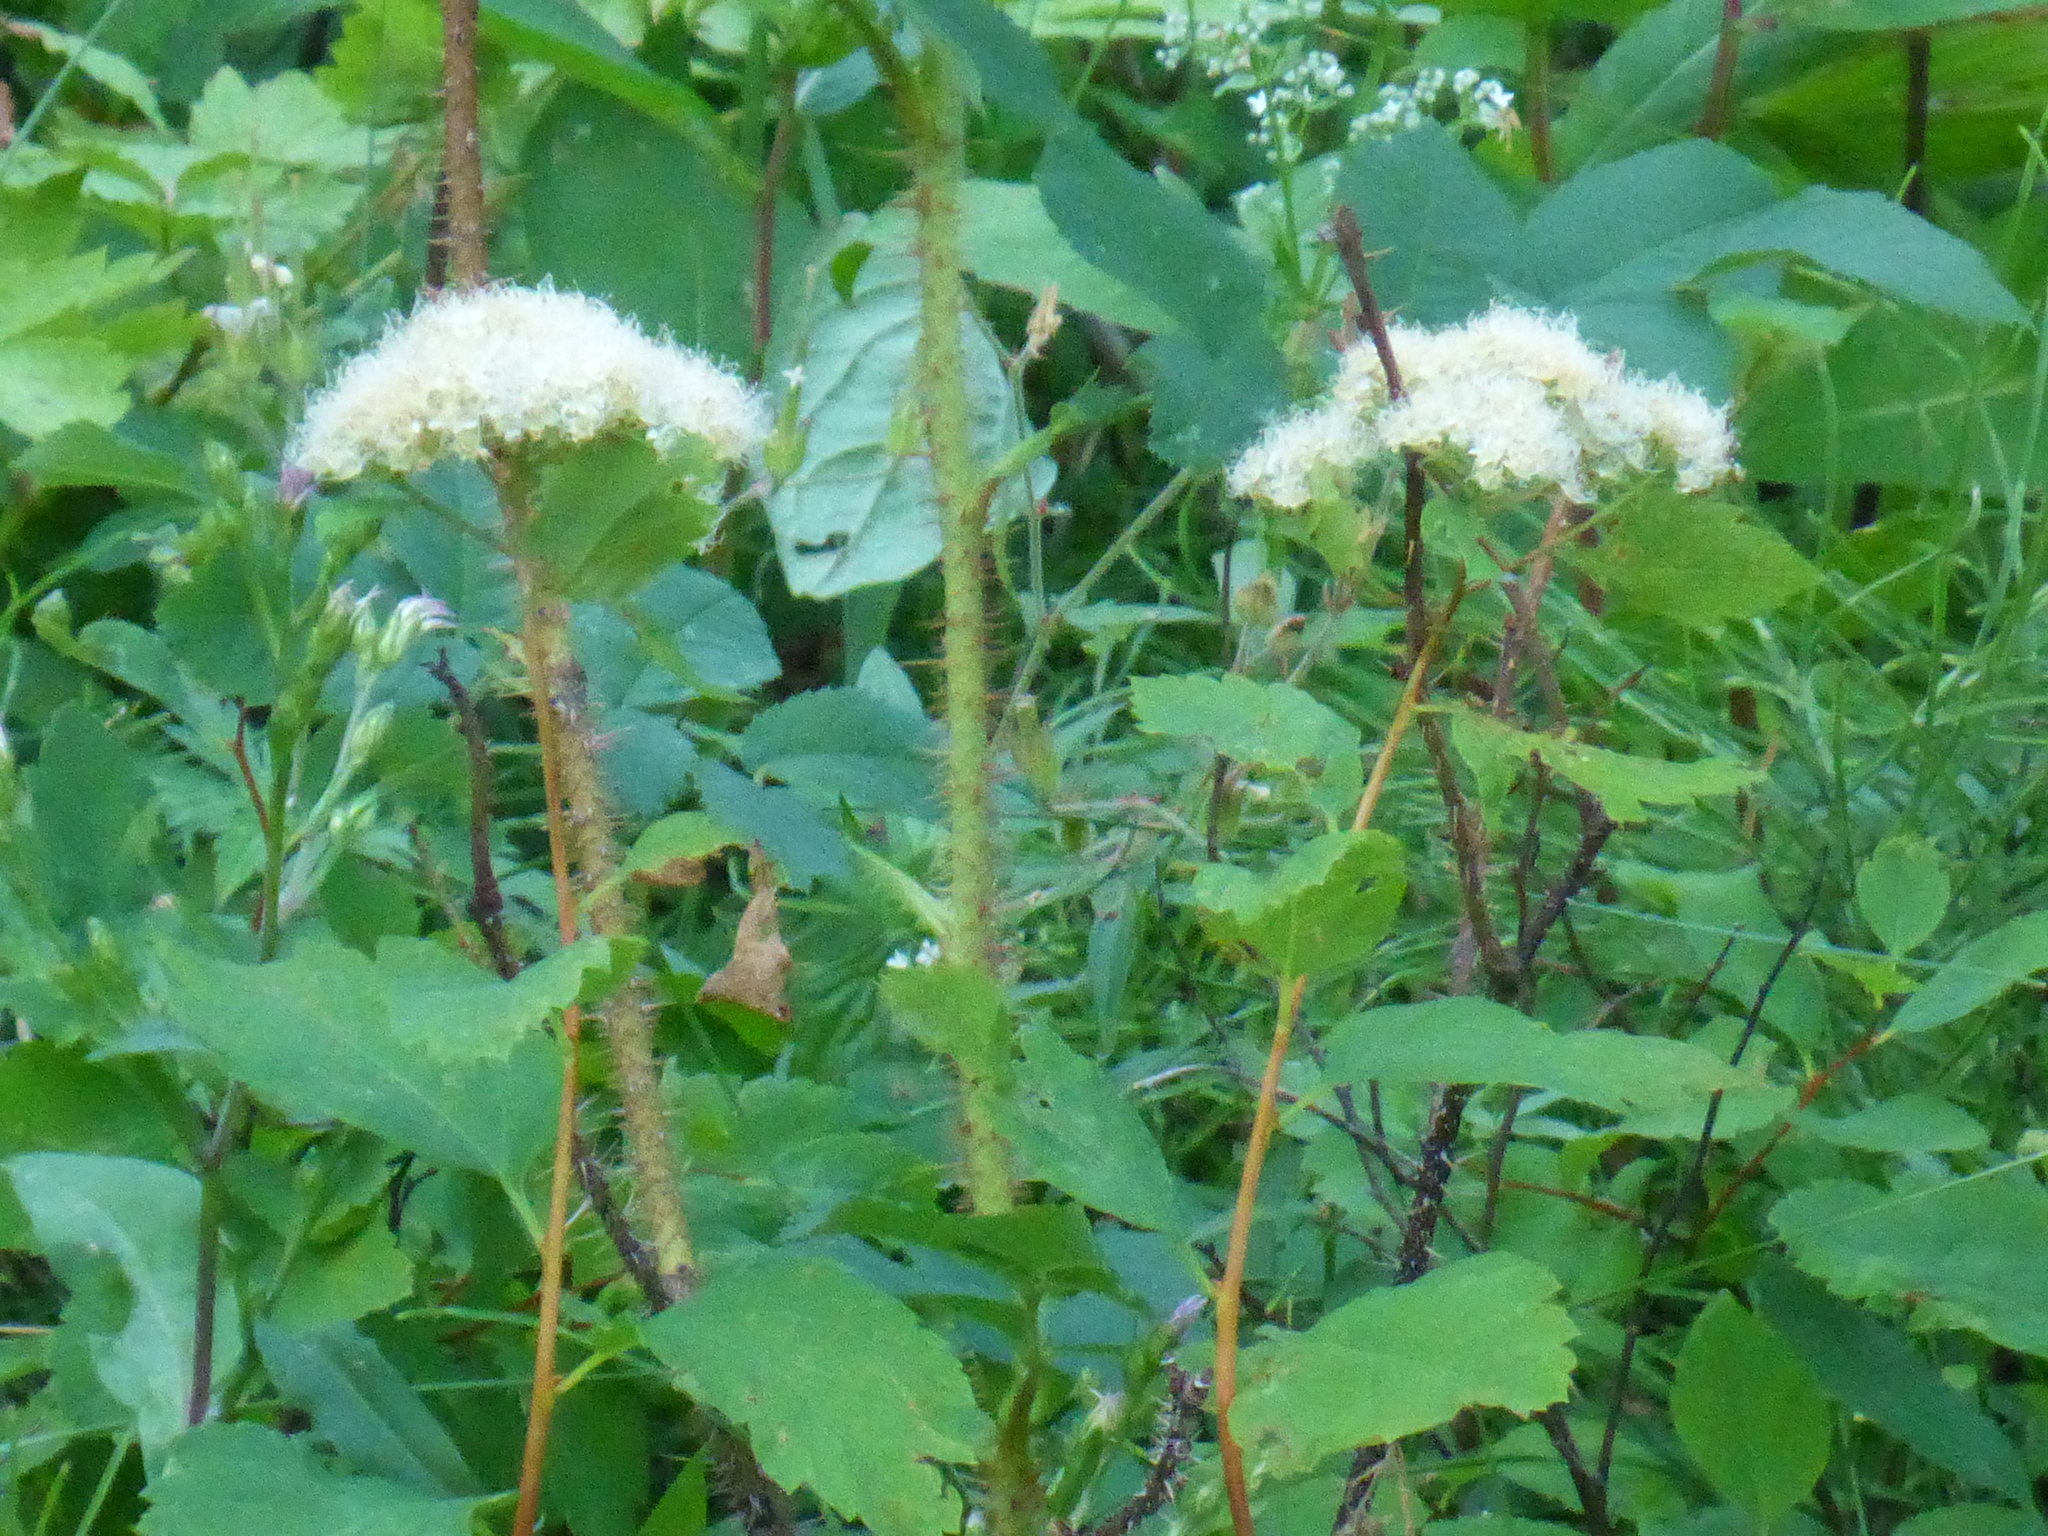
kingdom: Plantae
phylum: Tracheophyta
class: Magnoliopsida
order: Rosales
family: Rosaceae
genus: Spiraea
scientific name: Spiraea lucida
